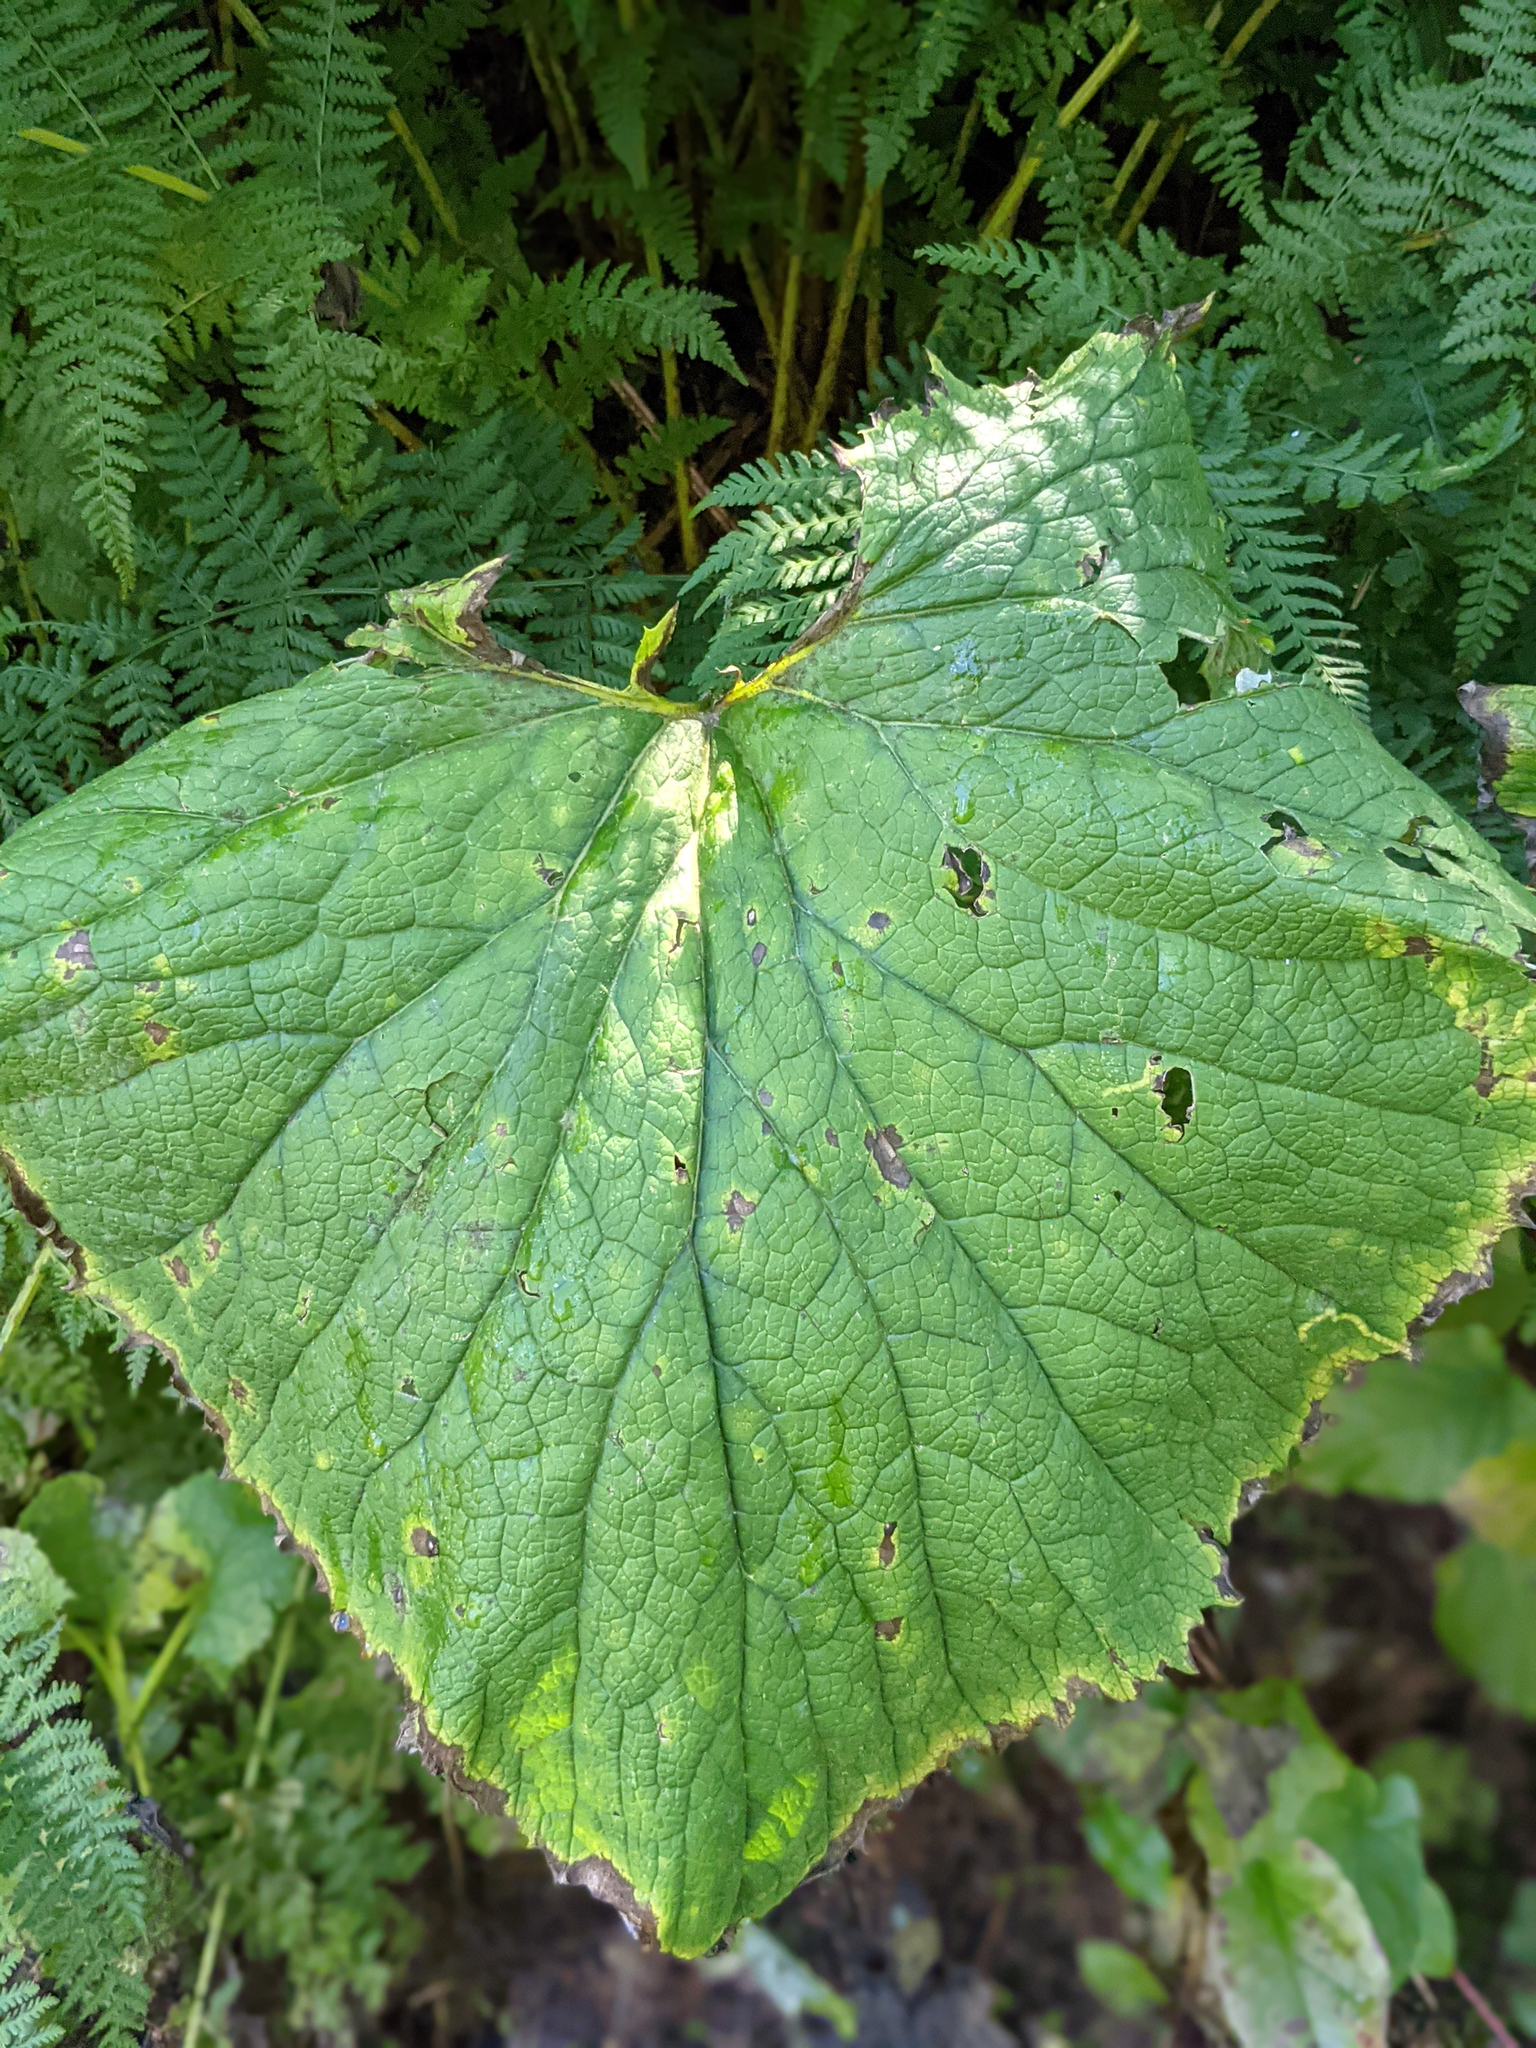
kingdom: Plantae
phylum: Tracheophyta
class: Magnoliopsida
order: Asterales
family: Asteraceae
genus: Adenostyles
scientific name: Adenostyles alliariae
